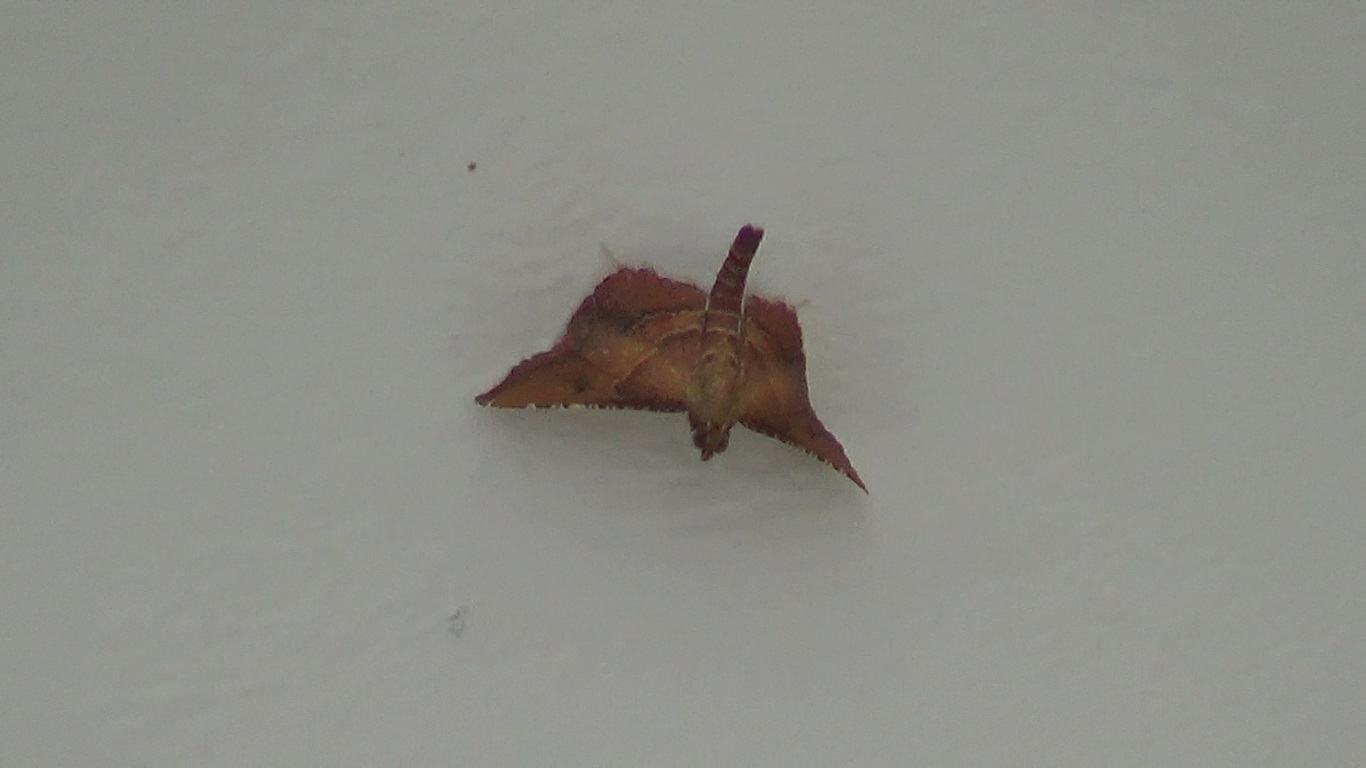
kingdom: Animalia
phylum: Arthropoda
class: Insecta
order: Lepidoptera
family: Pyralidae
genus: Endotricha
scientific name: Endotricha flammealis
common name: Rosy tabby
